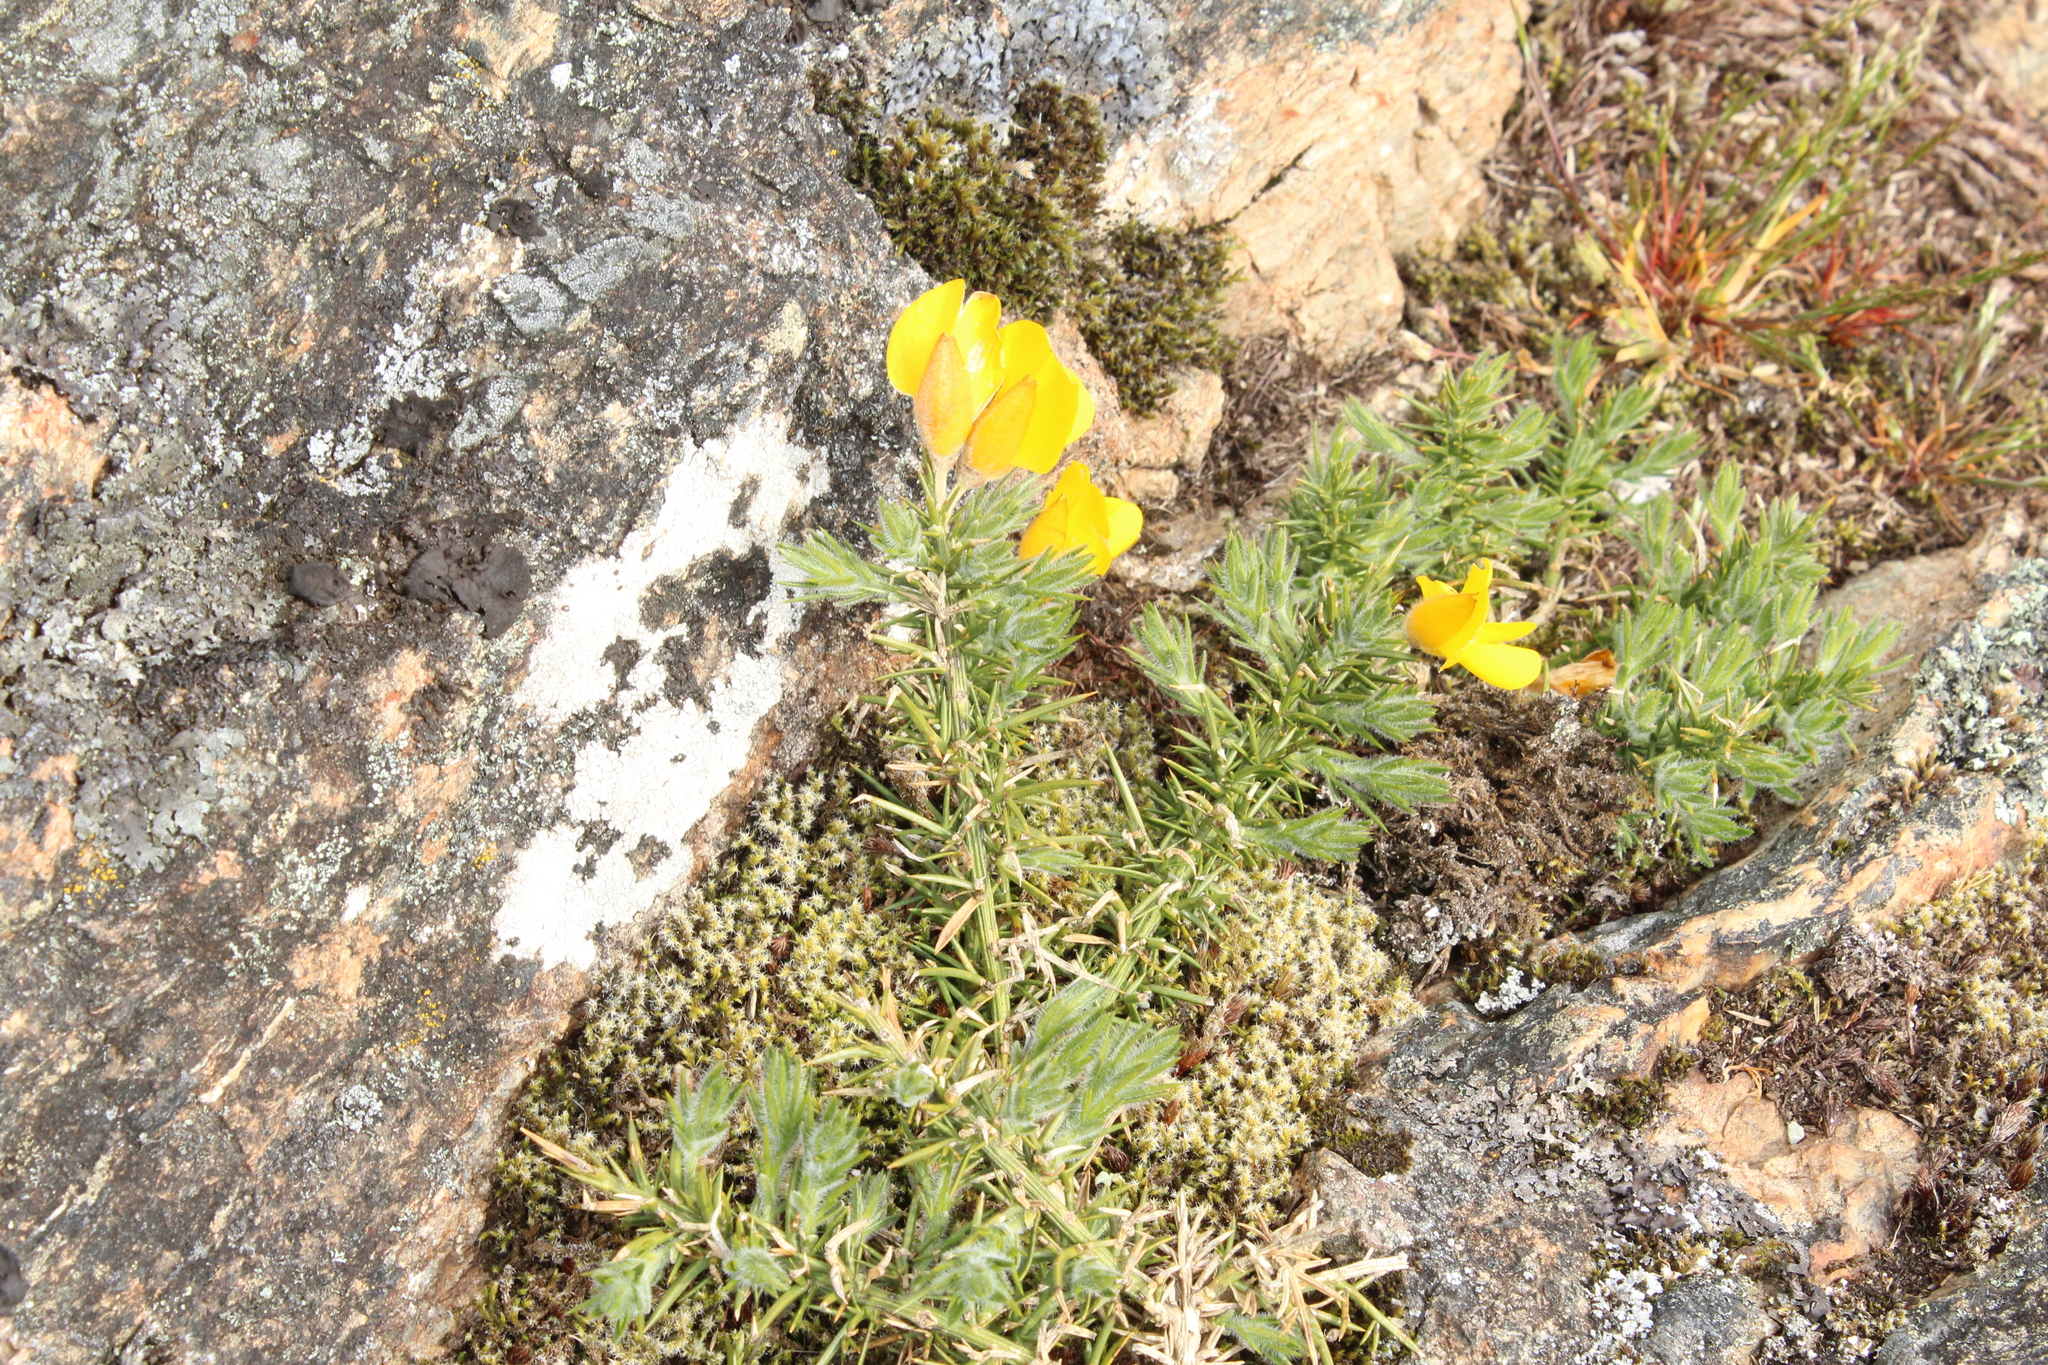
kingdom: Plantae
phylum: Tracheophyta
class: Magnoliopsida
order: Fabales
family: Fabaceae
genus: Ulex
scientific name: Ulex europaeus
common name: Common gorse
